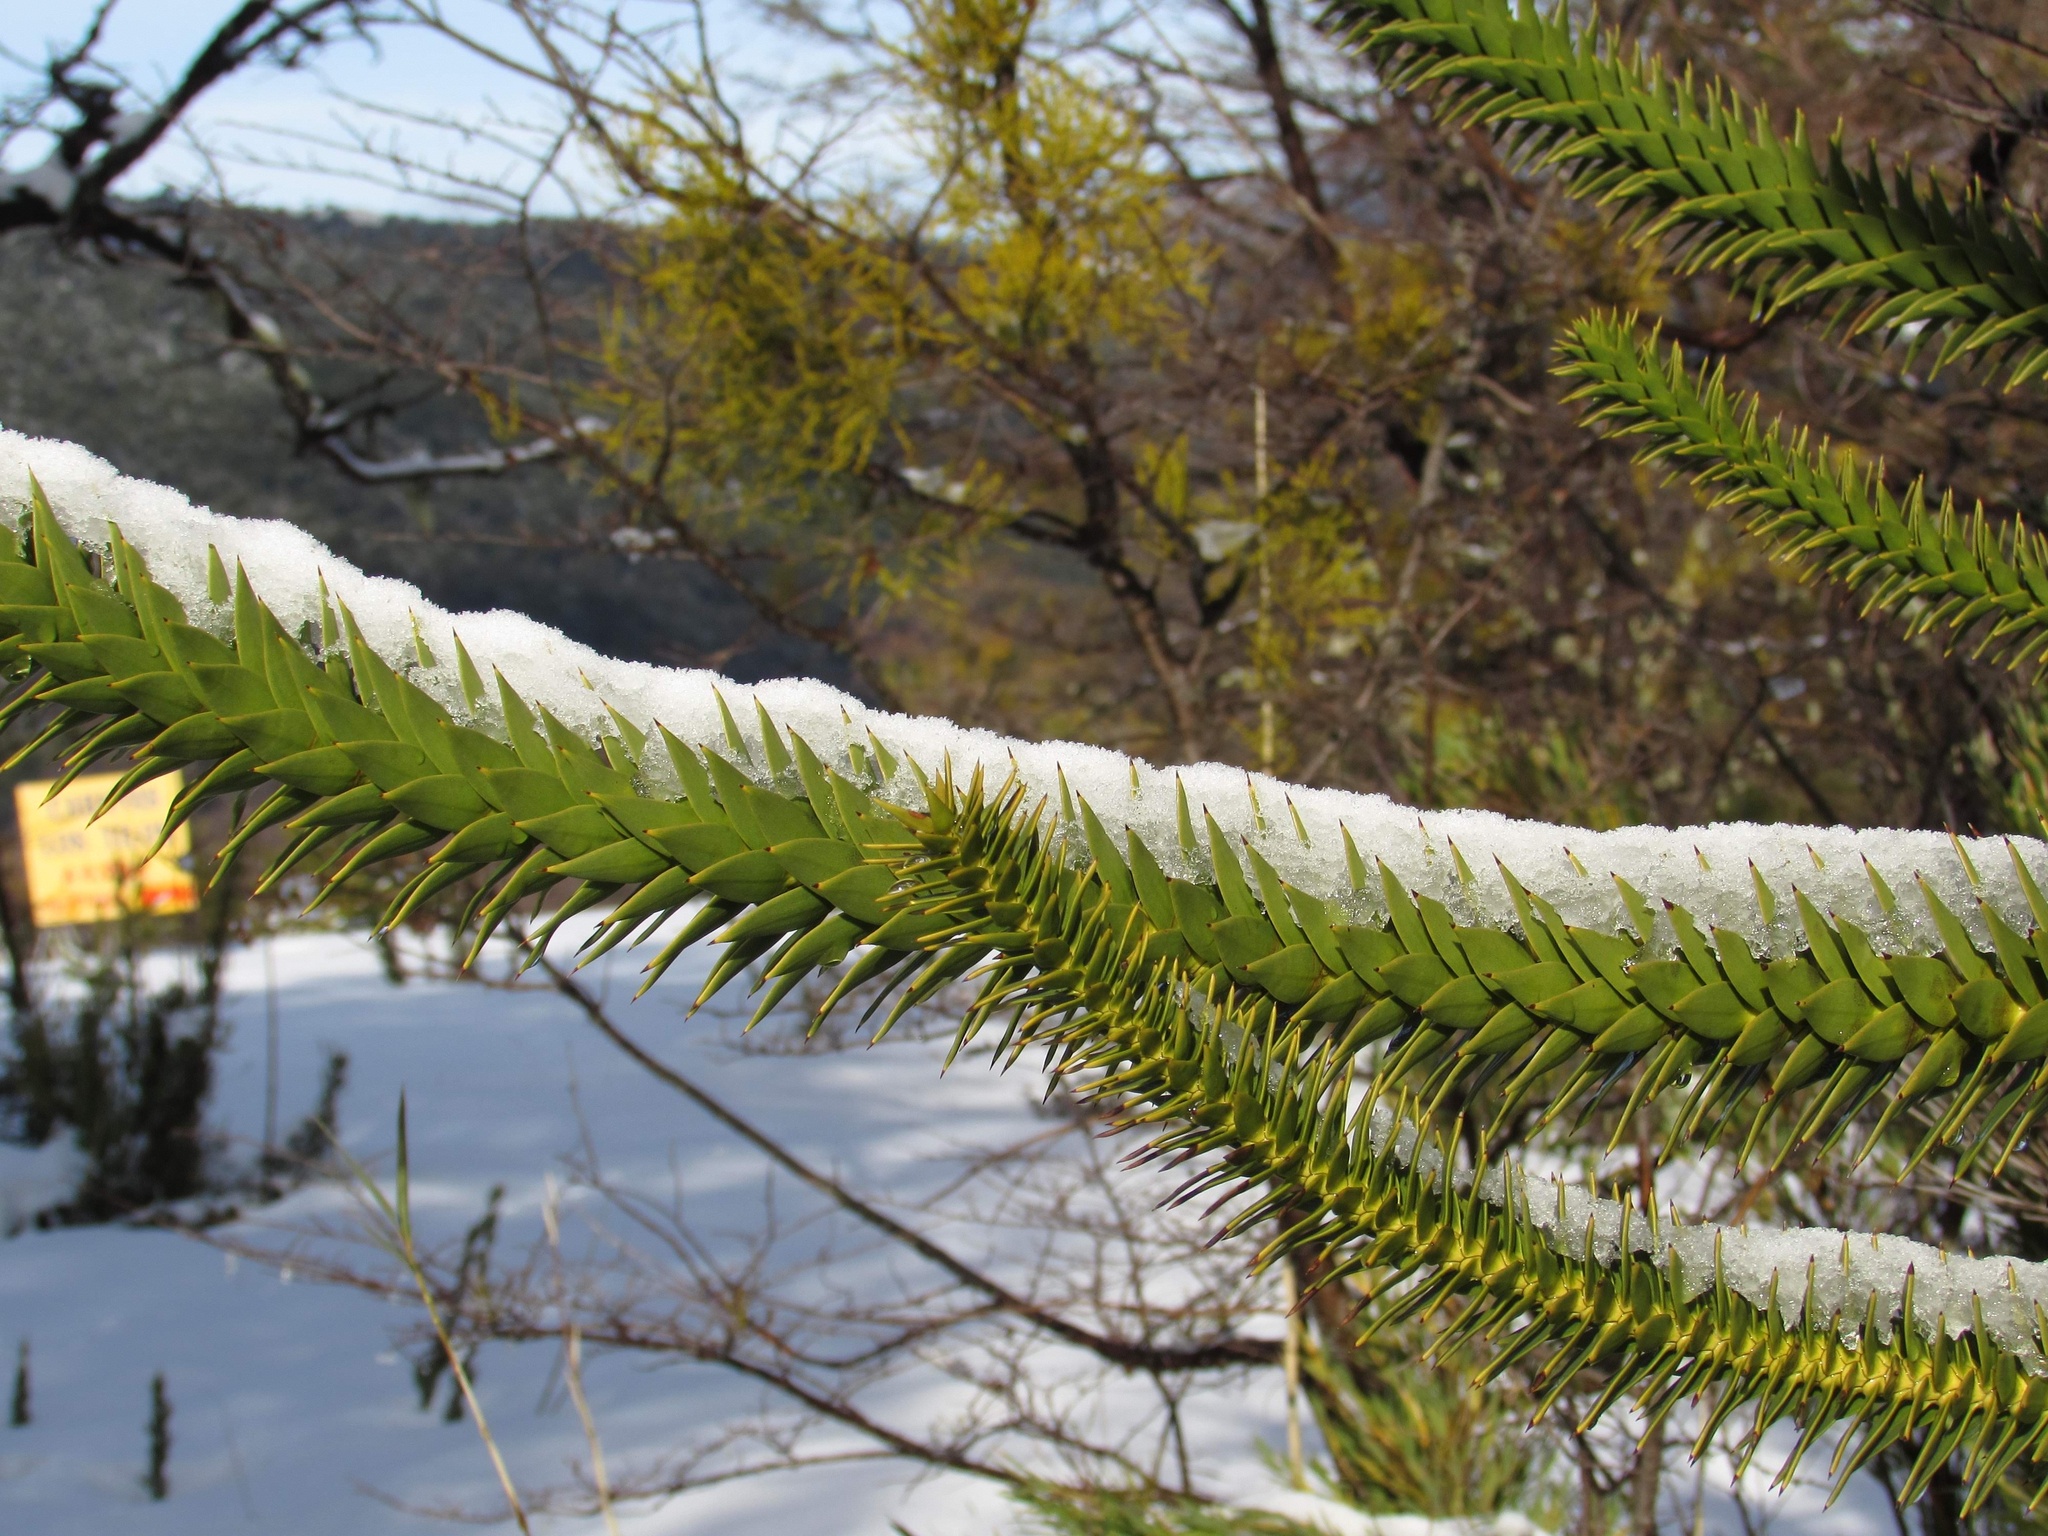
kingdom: Plantae
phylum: Tracheophyta
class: Pinopsida
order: Pinales
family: Araucariaceae
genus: Araucaria
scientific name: Araucaria araucana
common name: Monkey-puzzle
